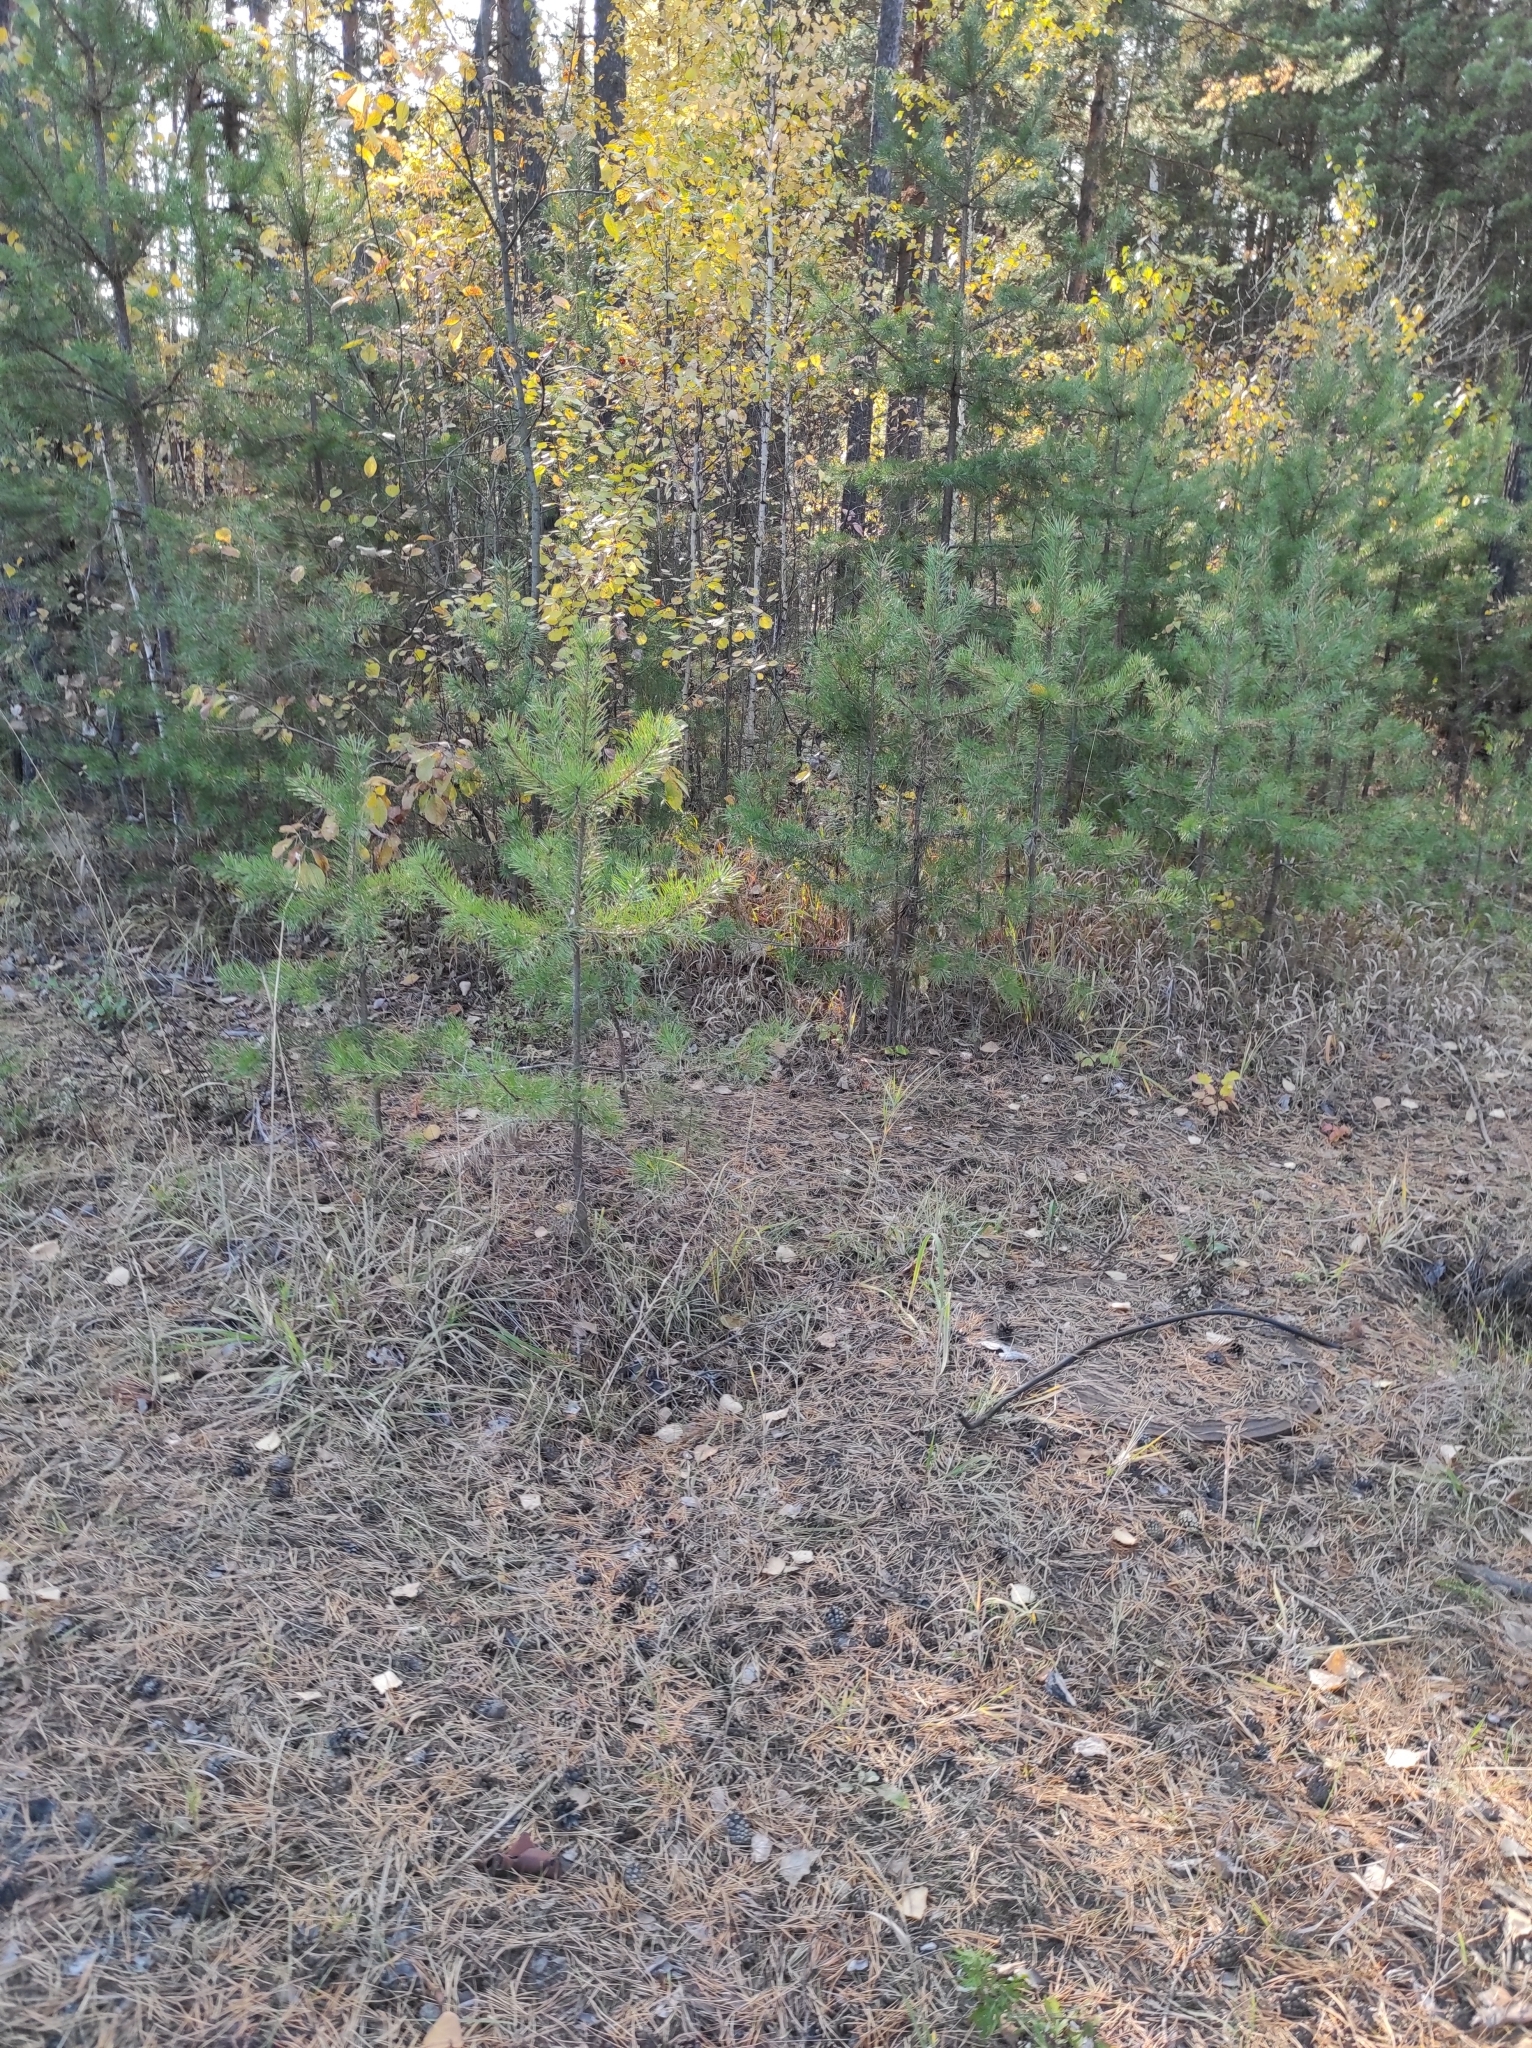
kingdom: Plantae
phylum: Tracheophyta
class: Pinopsida
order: Pinales
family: Pinaceae
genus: Pinus
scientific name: Pinus sylvestris
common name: Scots pine
